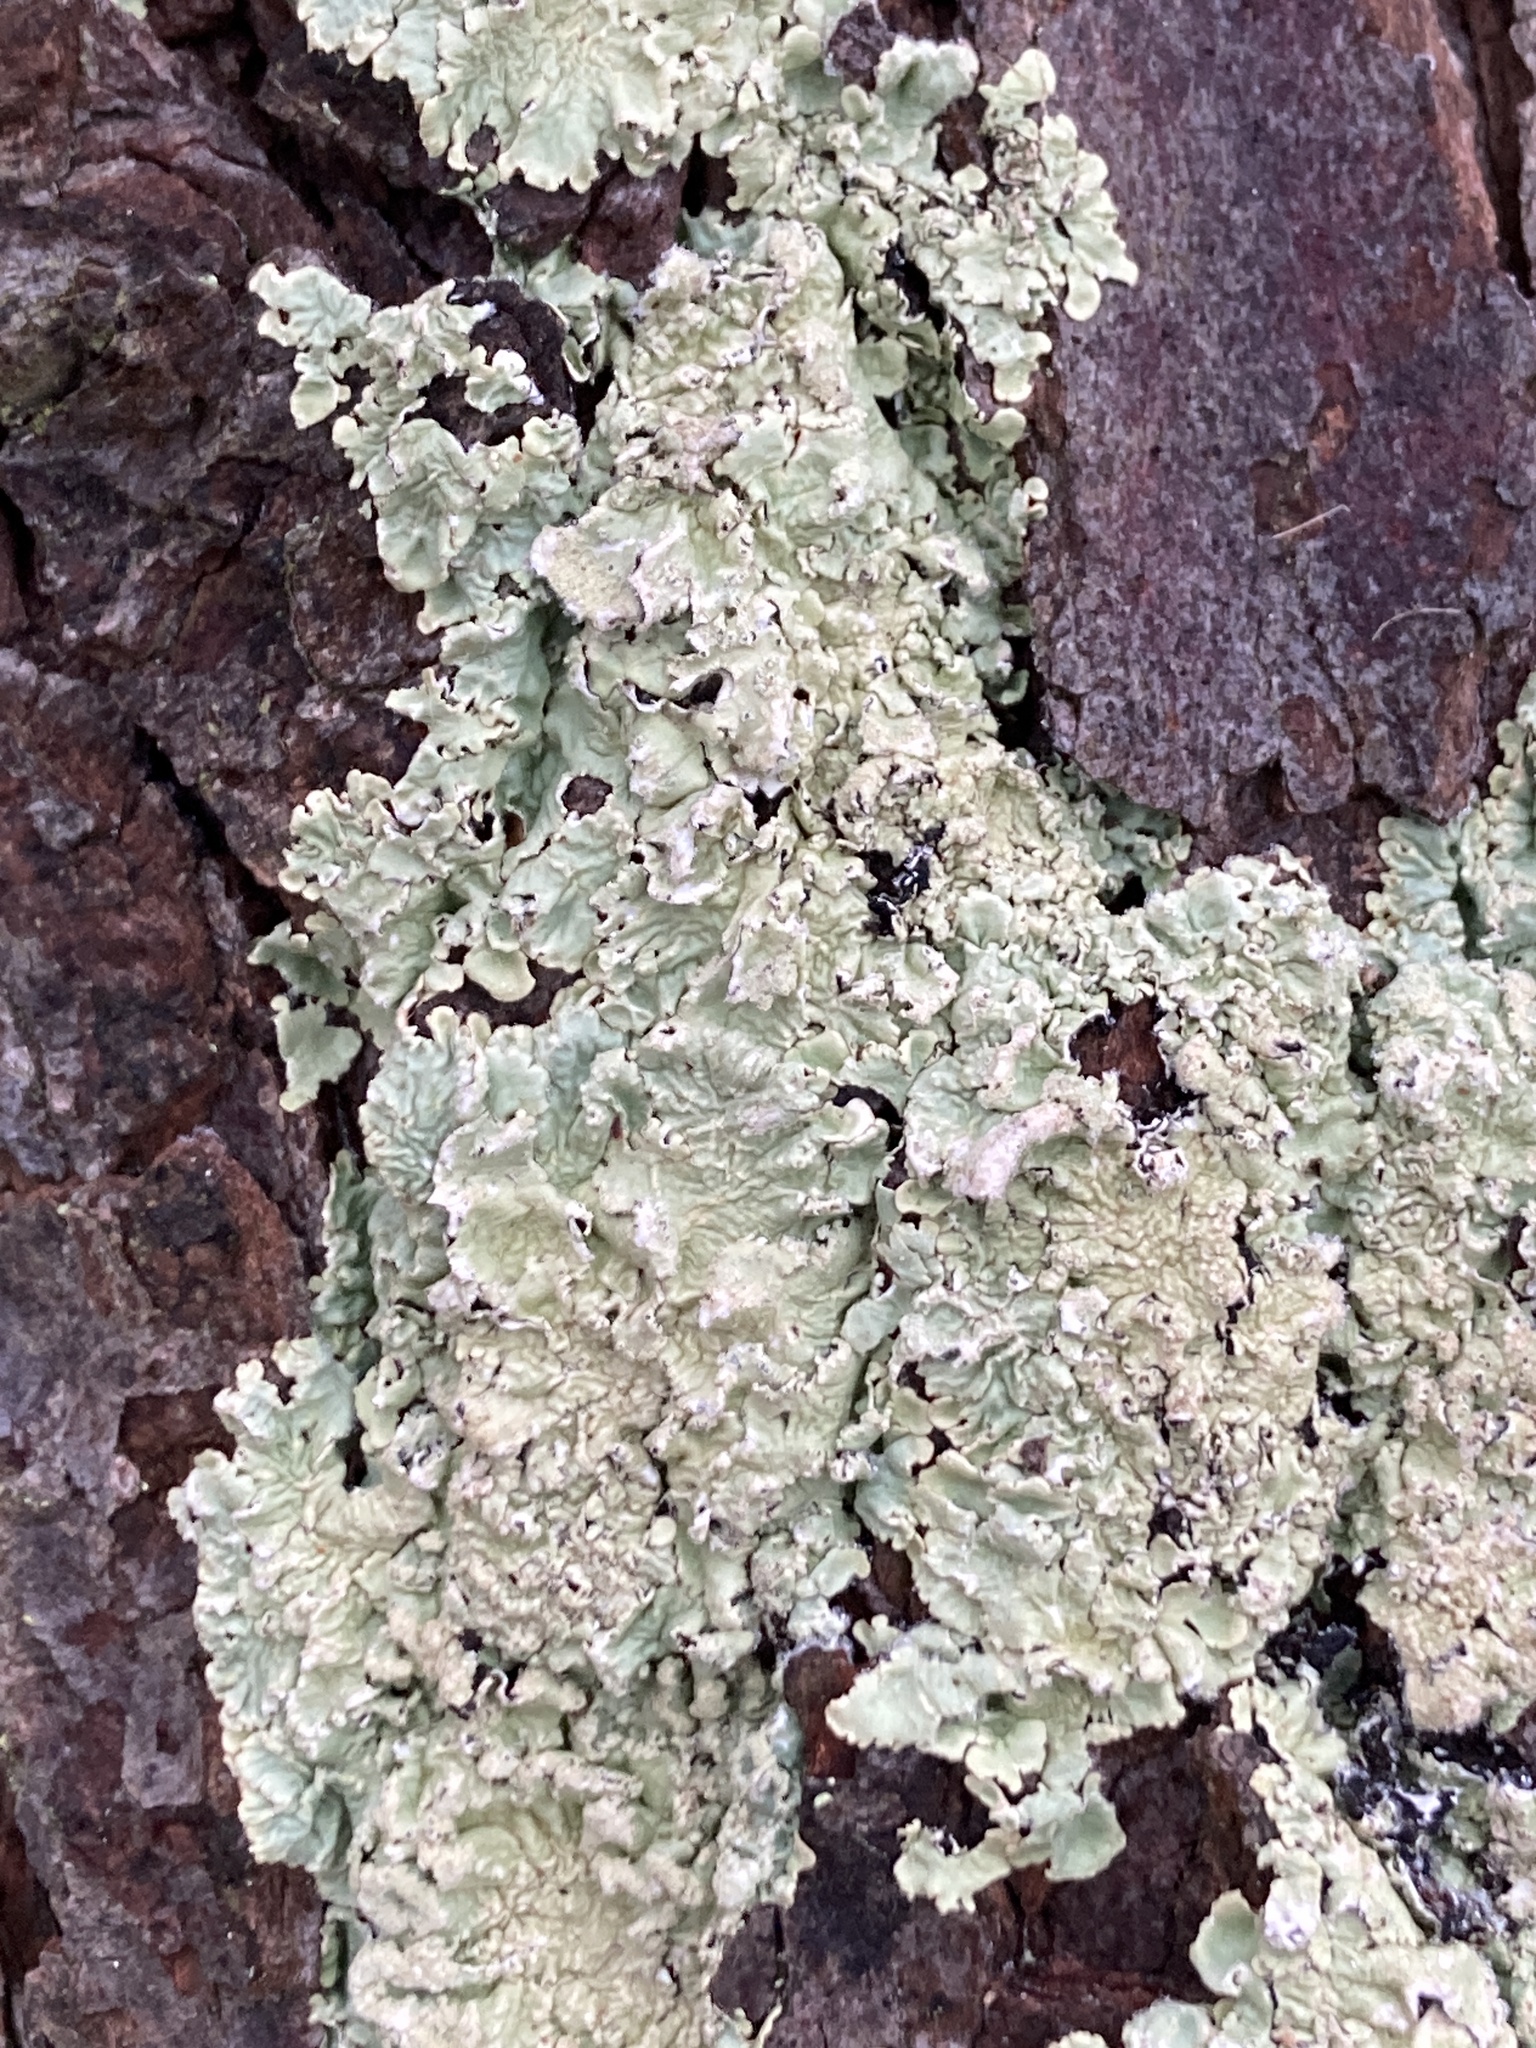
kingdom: Fungi
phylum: Ascomycota
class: Lecanoromycetes
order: Lecanorales
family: Parmeliaceae
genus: Flavoparmelia
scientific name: Flavoparmelia caperata
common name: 40-mile per hour lichen
